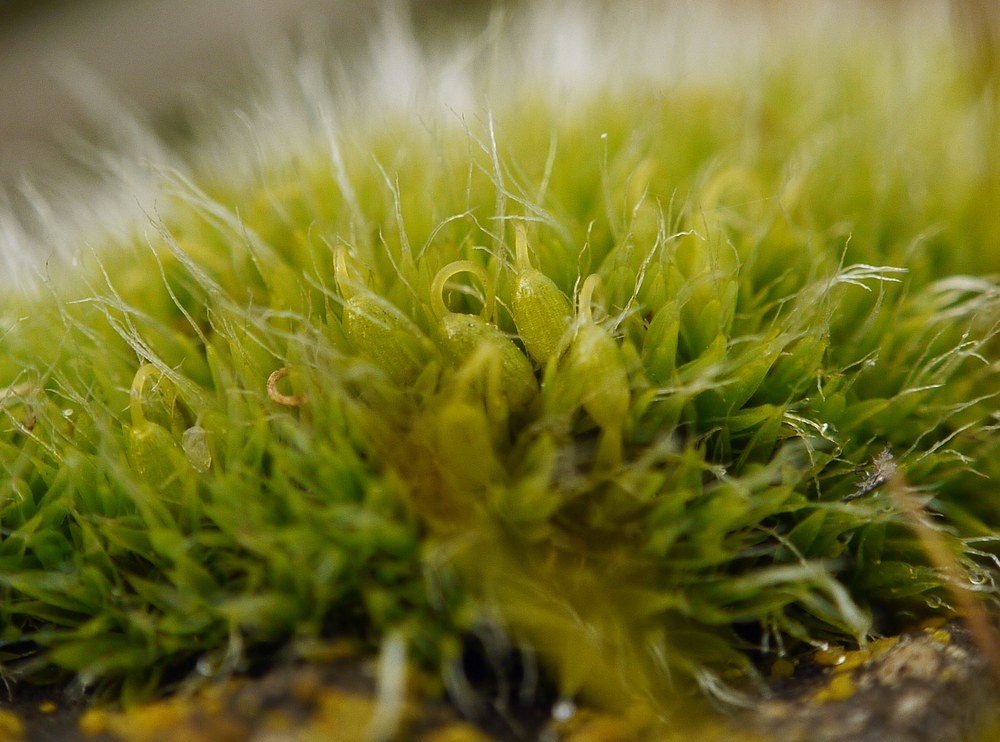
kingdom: Plantae
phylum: Bryophyta
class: Bryopsida
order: Grimmiales
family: Grimmiaceae
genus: Grimmia
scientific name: Grimmia pulvinata
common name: Grey-cushioned grimmia
